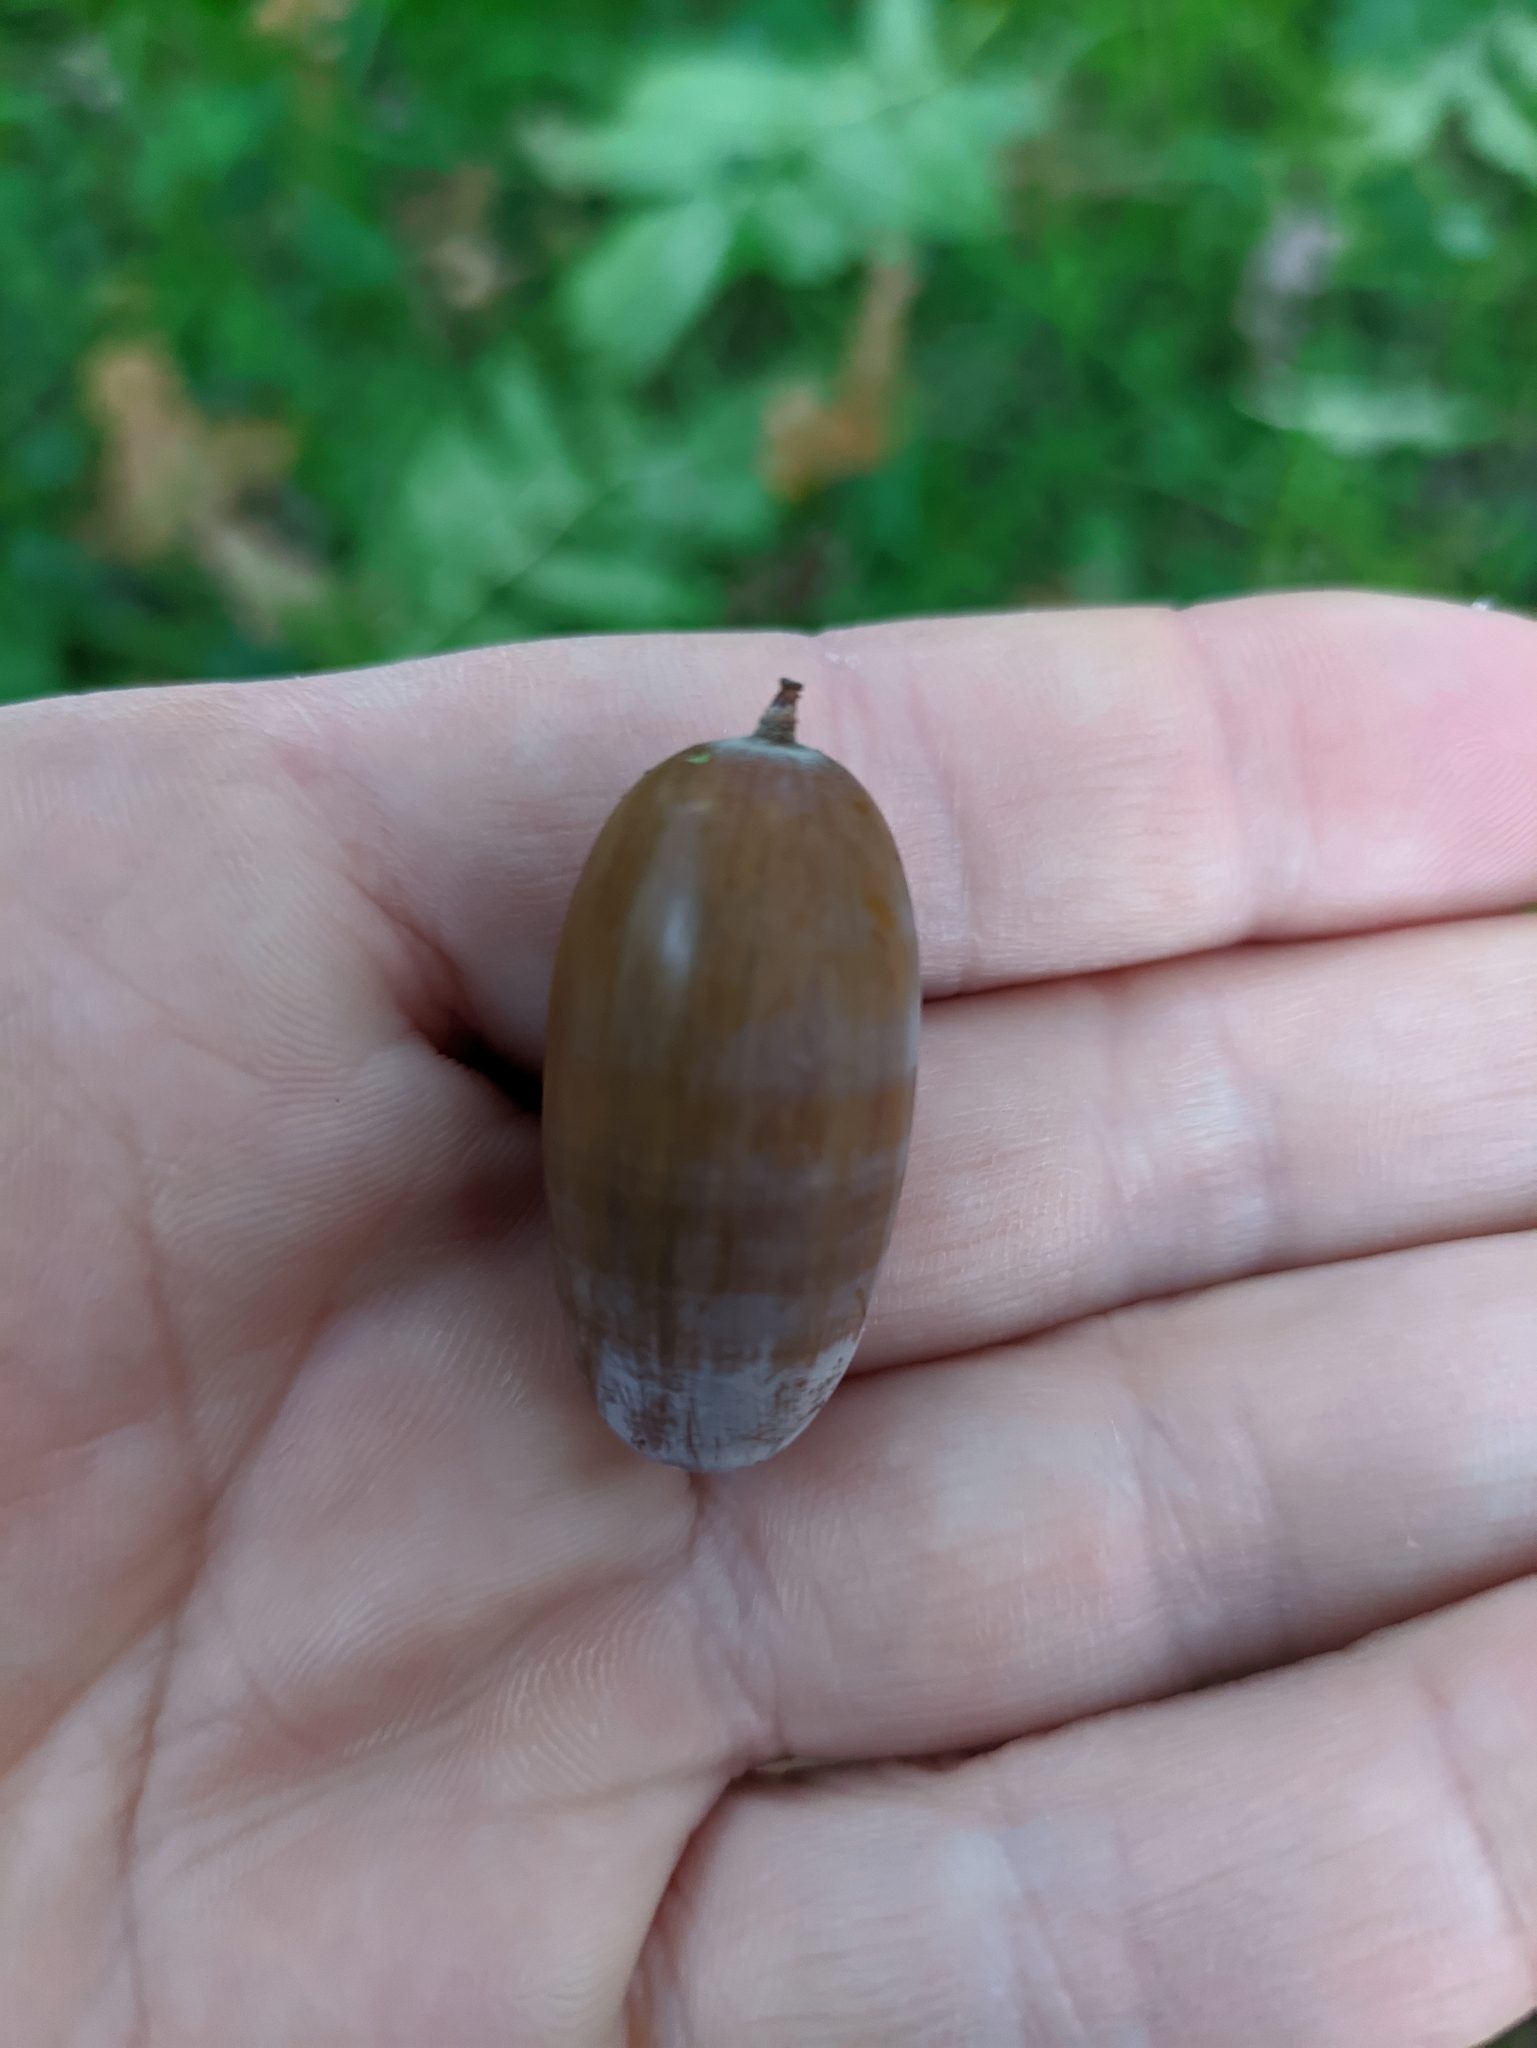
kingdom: Animalia
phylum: Arthropoda
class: Insecta
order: Hymenoptera
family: Cynipidae
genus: Andricus
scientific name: Andricus quercuscalicis
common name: Knopper gall
